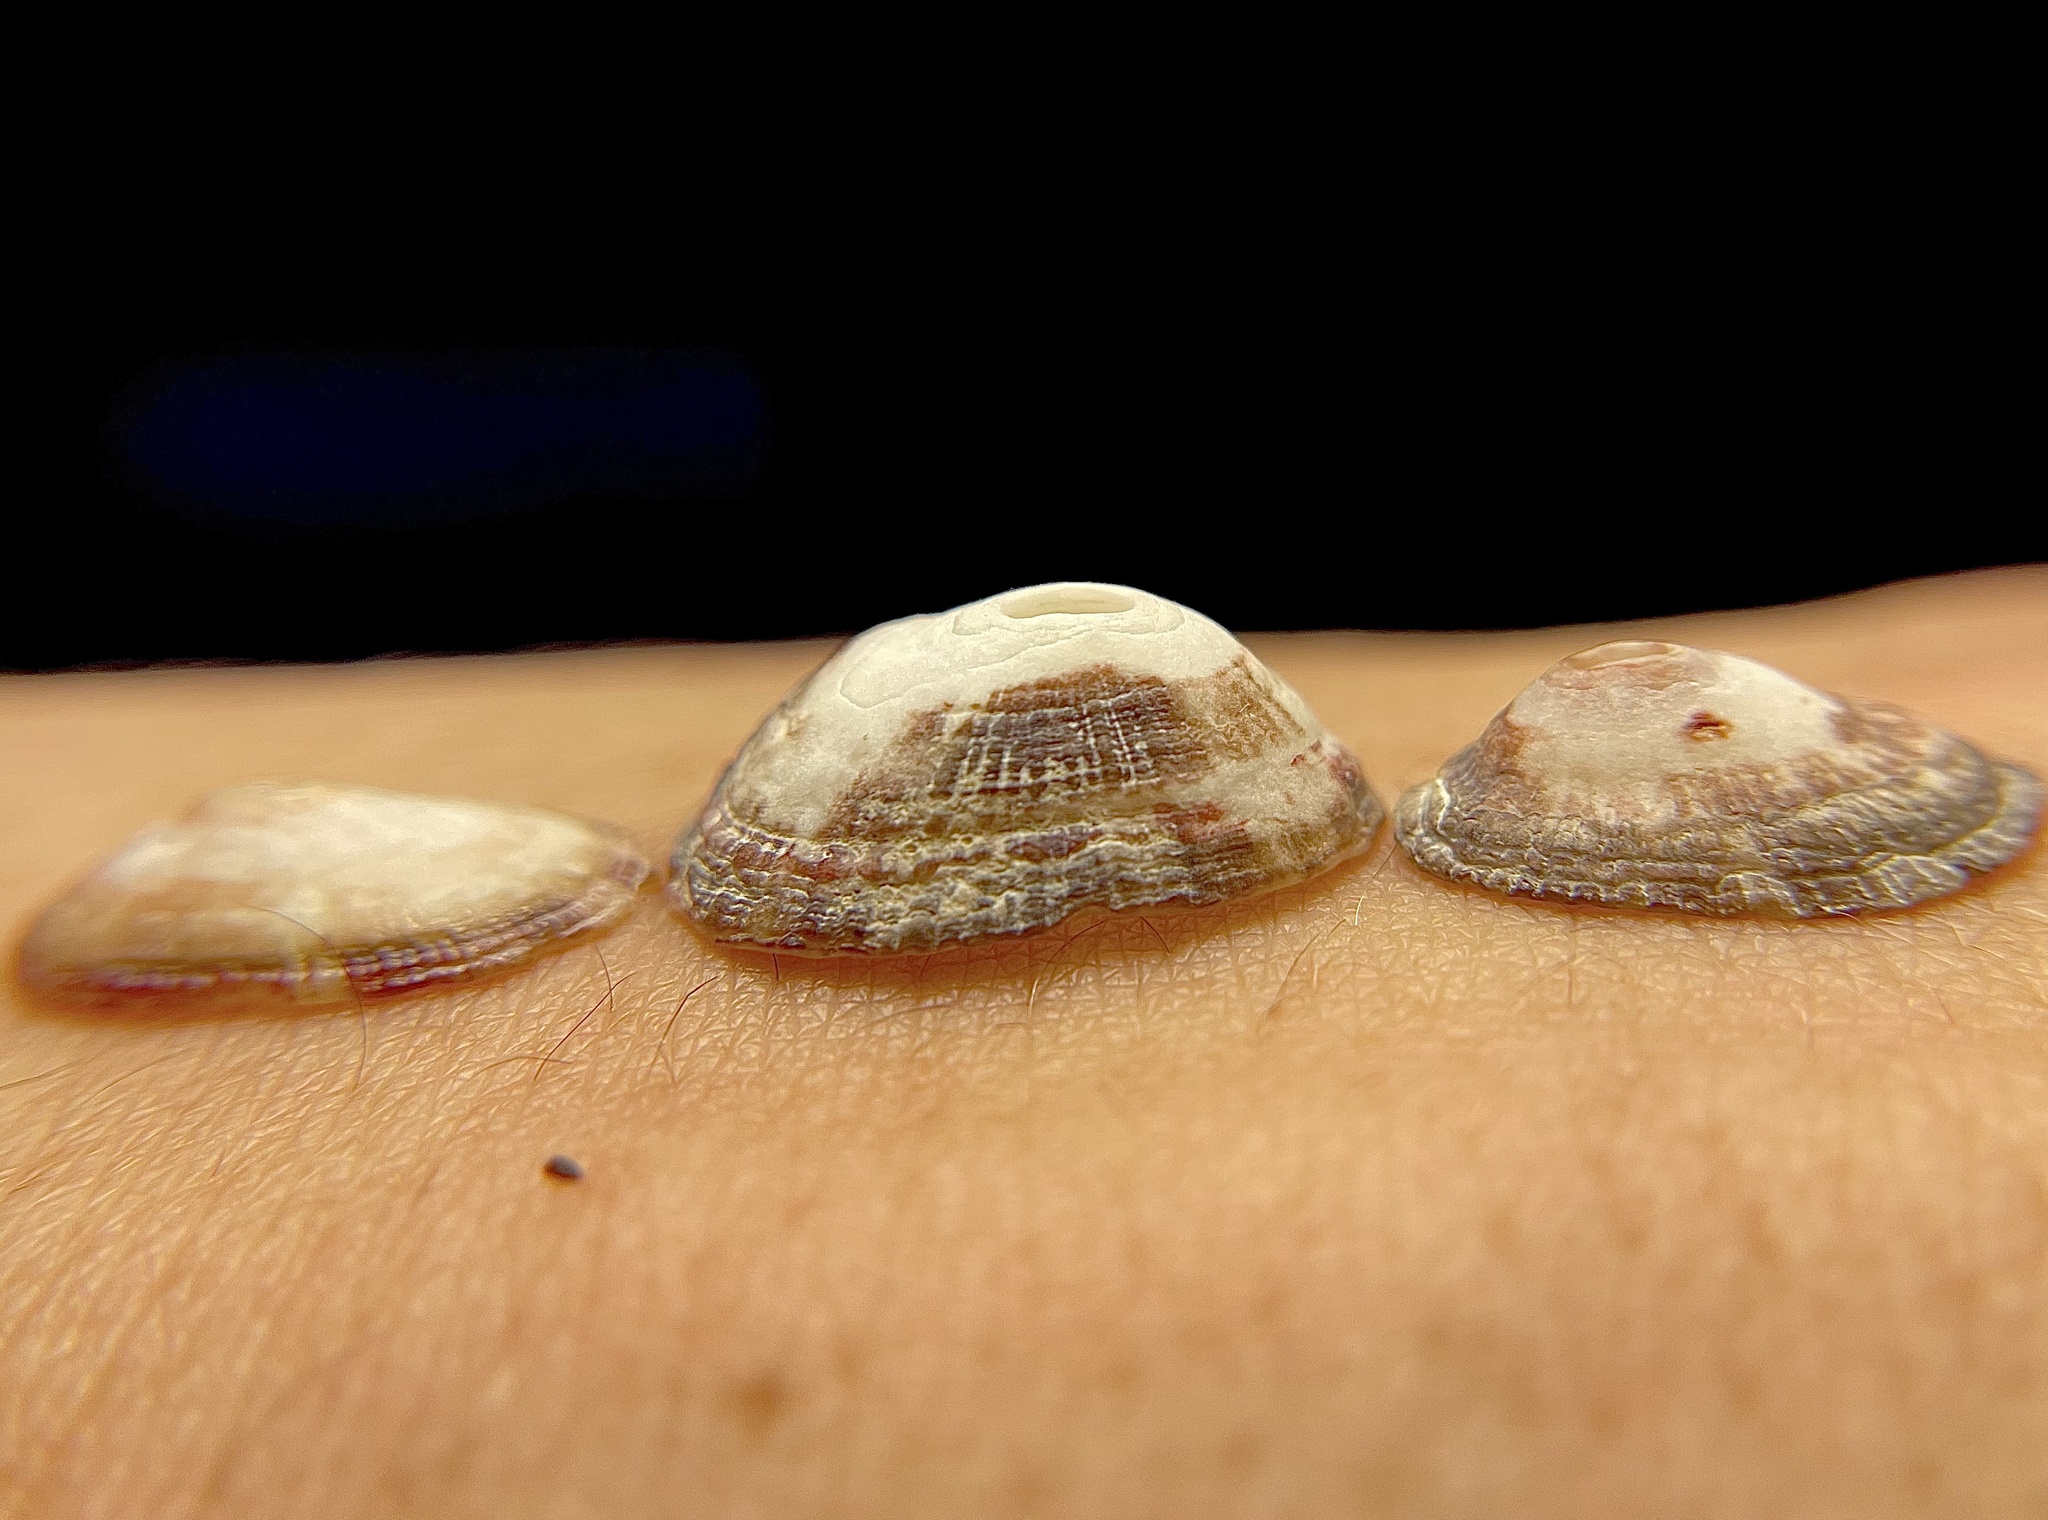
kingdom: Animalia
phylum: Mollusca
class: Gastropoda
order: Lepetellida
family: Fissurellidae
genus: Fissurella
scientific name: Fissurella nubecula
